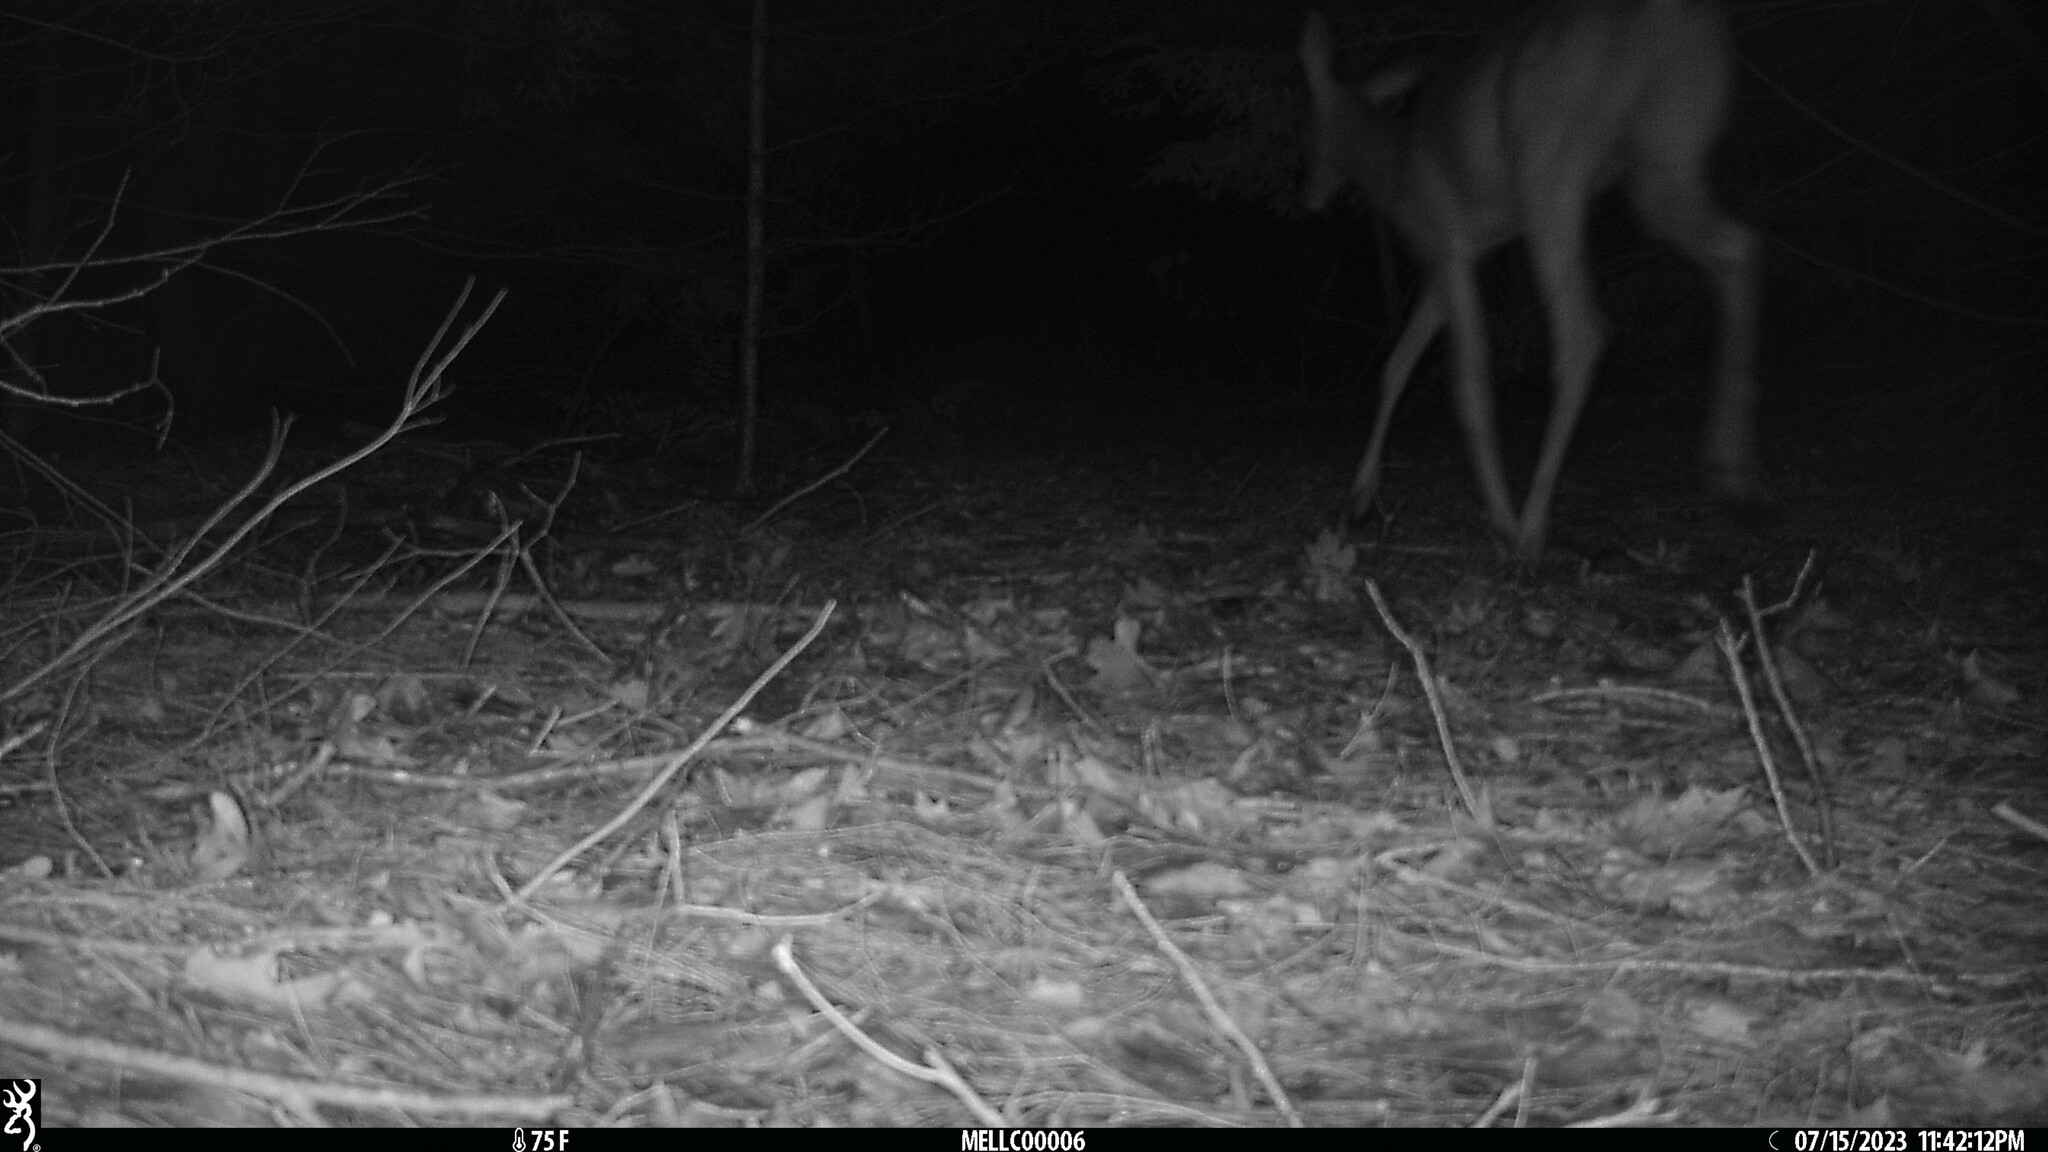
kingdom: Animalia
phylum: Chordata
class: Mammalia
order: Artiodactyla
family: Cervidae
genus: Odocoileus
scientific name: Odocoileus virginianus
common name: White-tailed deer
